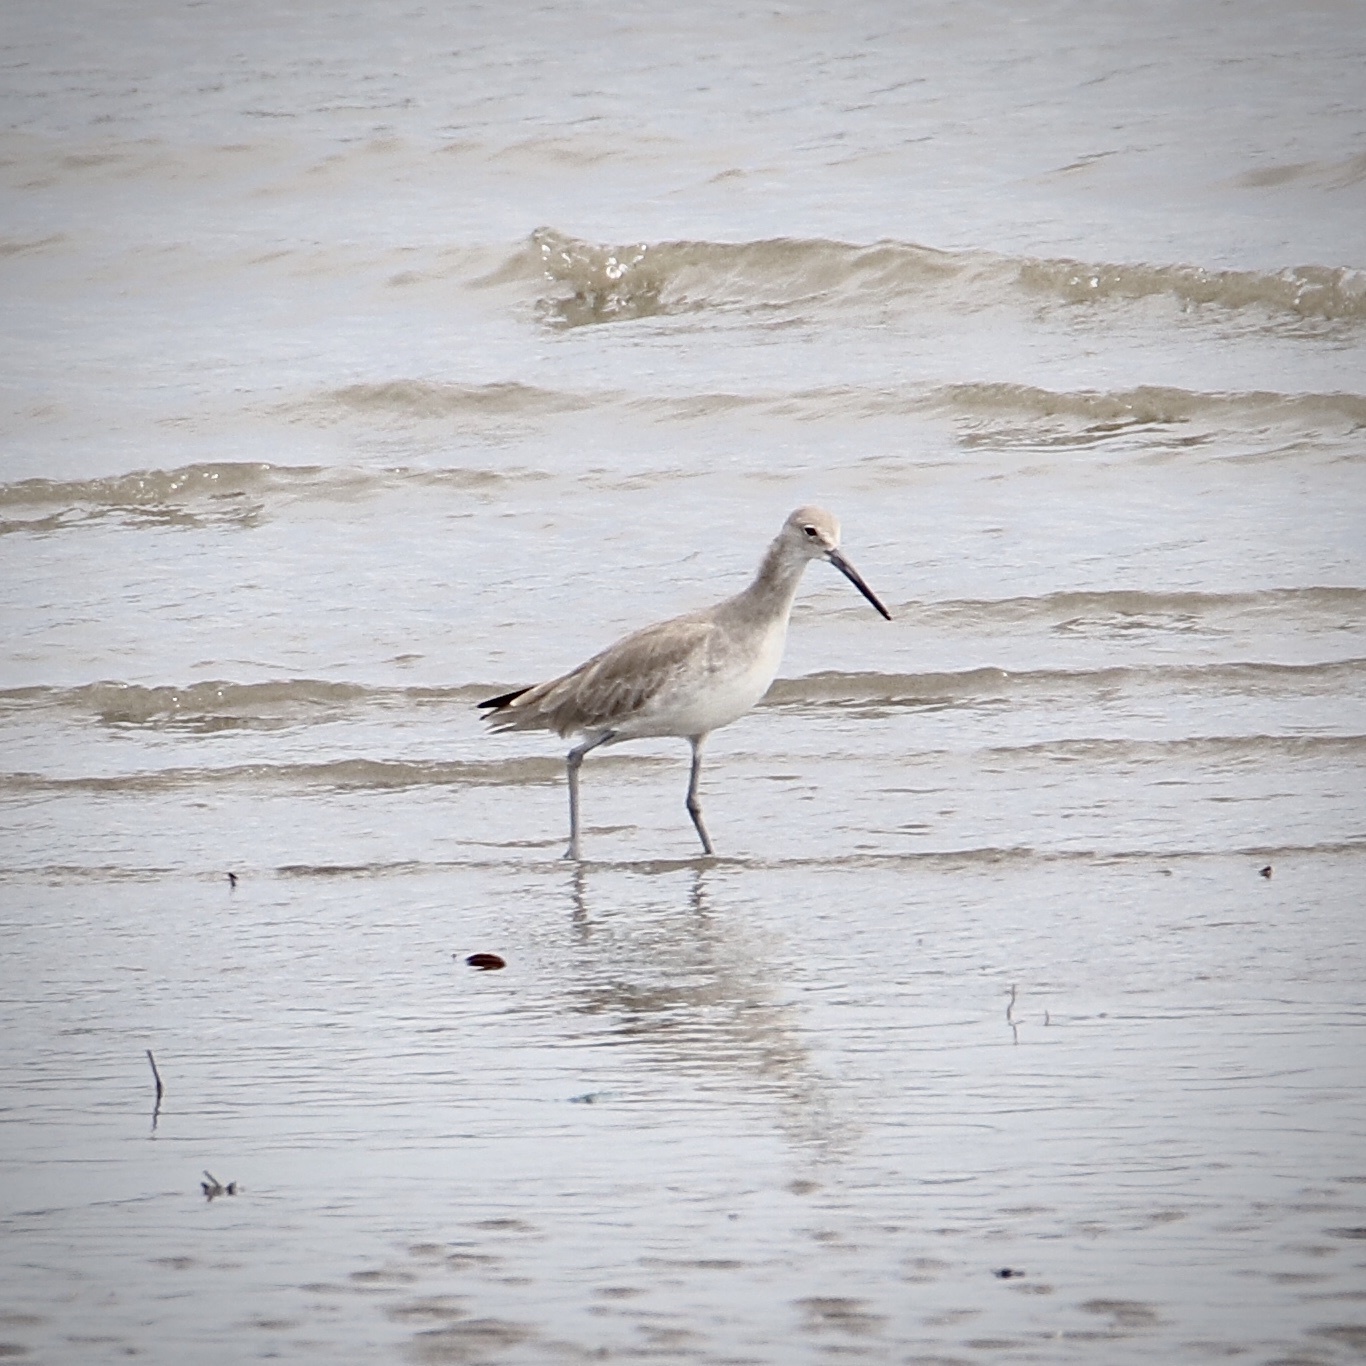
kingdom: Animalia
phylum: Chordata
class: Aves
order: Charadriiformes
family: Scolopacidae
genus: Tringa
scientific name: Tringa semipalmata
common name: Willet
